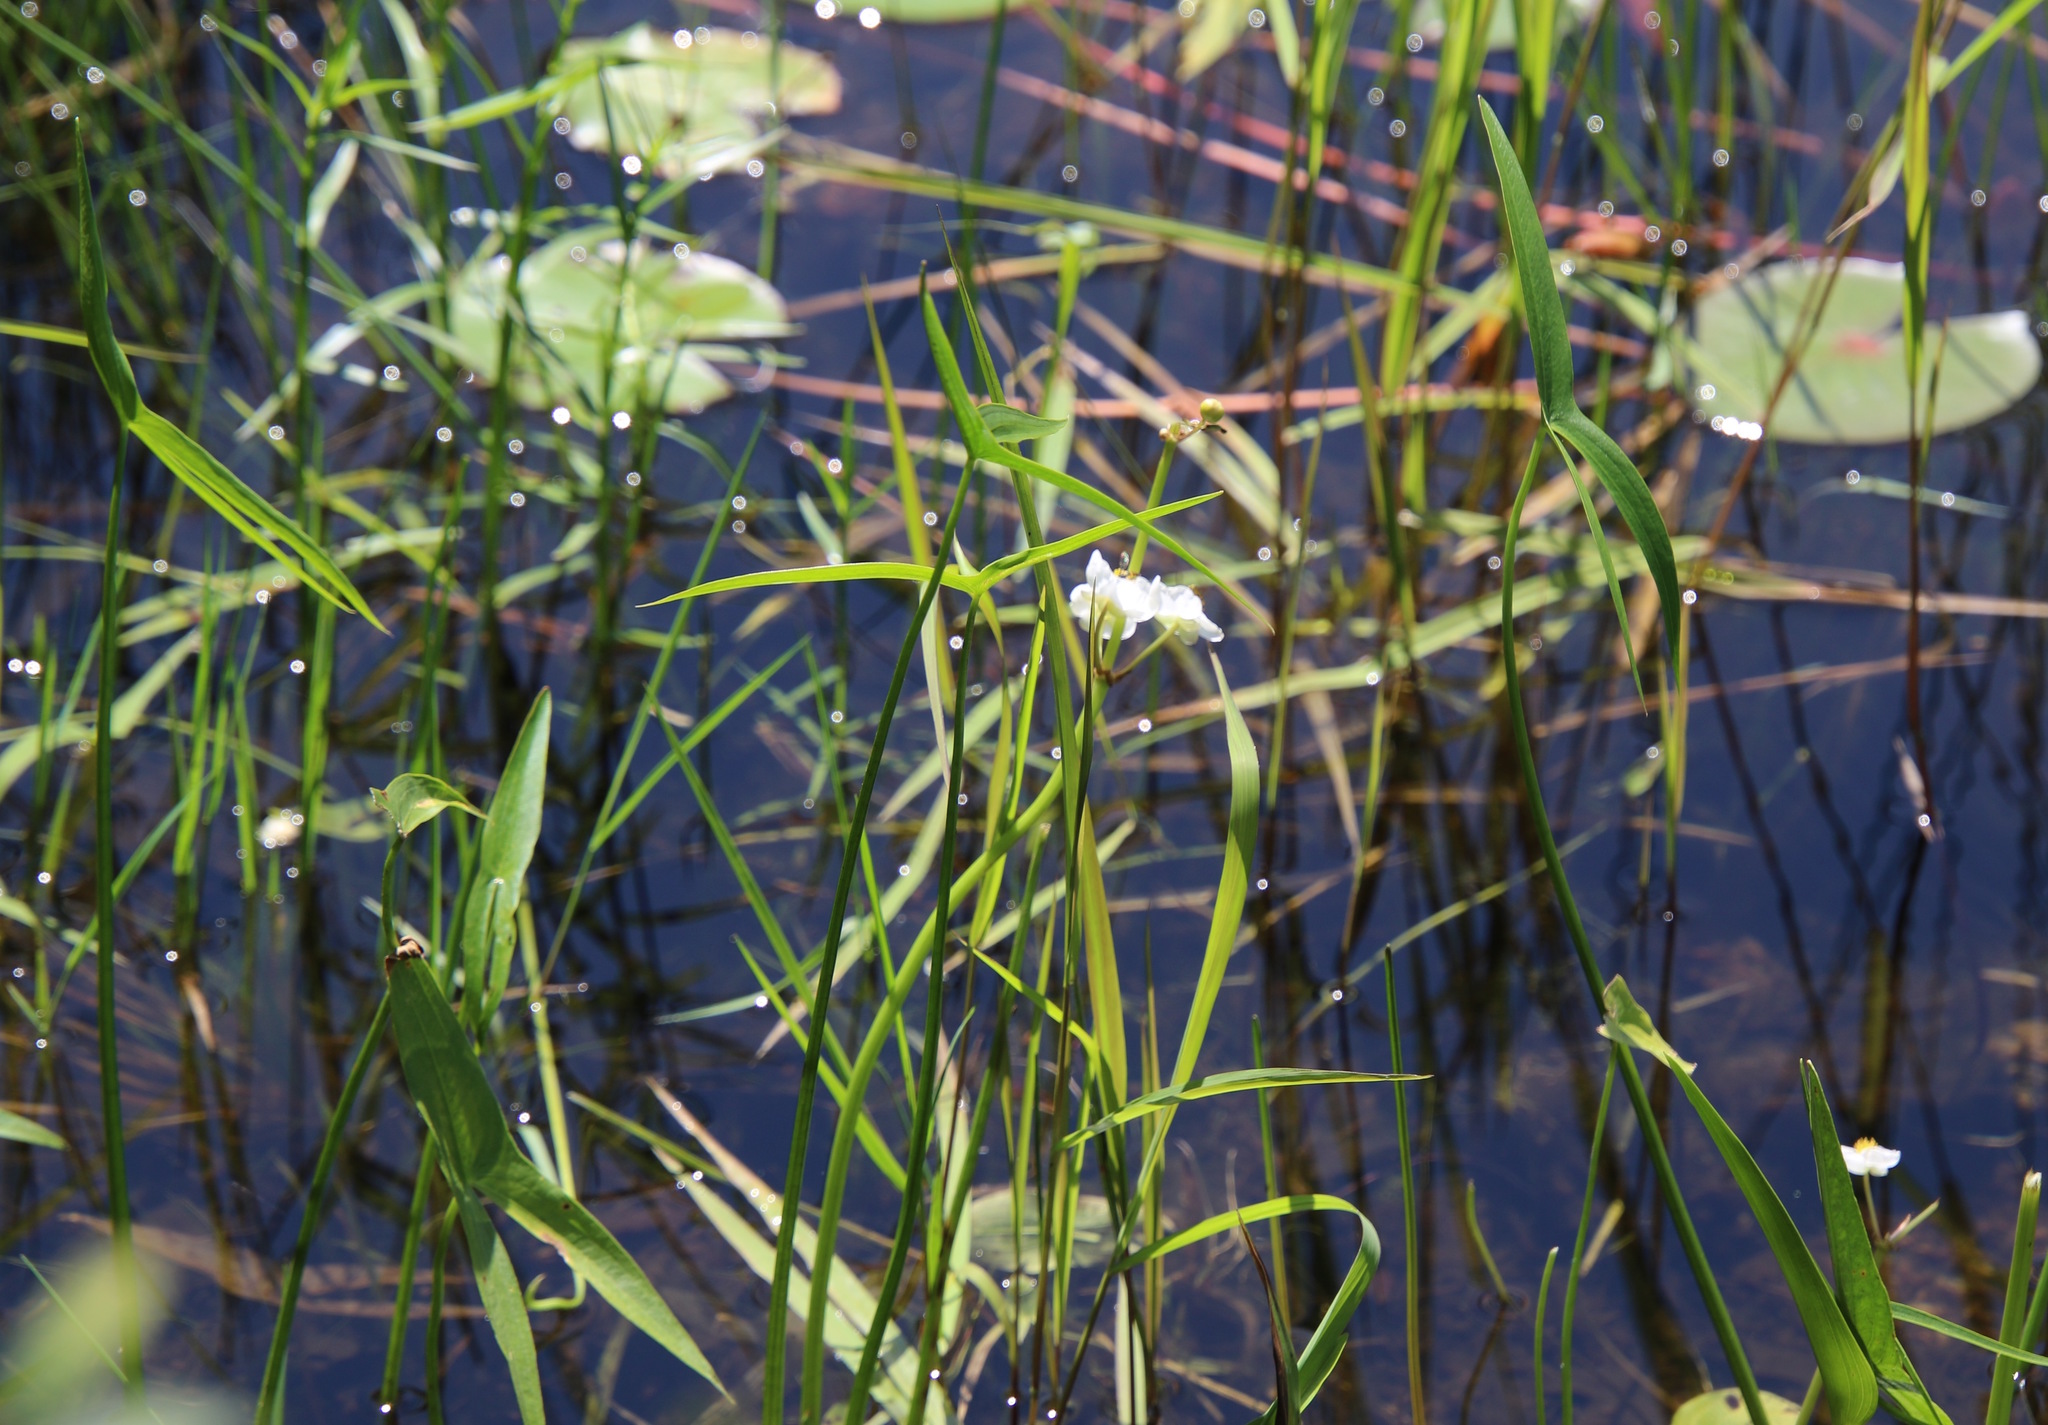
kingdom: Plantae
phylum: Tracheophyta
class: Liliopsida
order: Alismatales
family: Alismataceae
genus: Sagittaria
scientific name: Sagittaria latifolia
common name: Duck-potato
